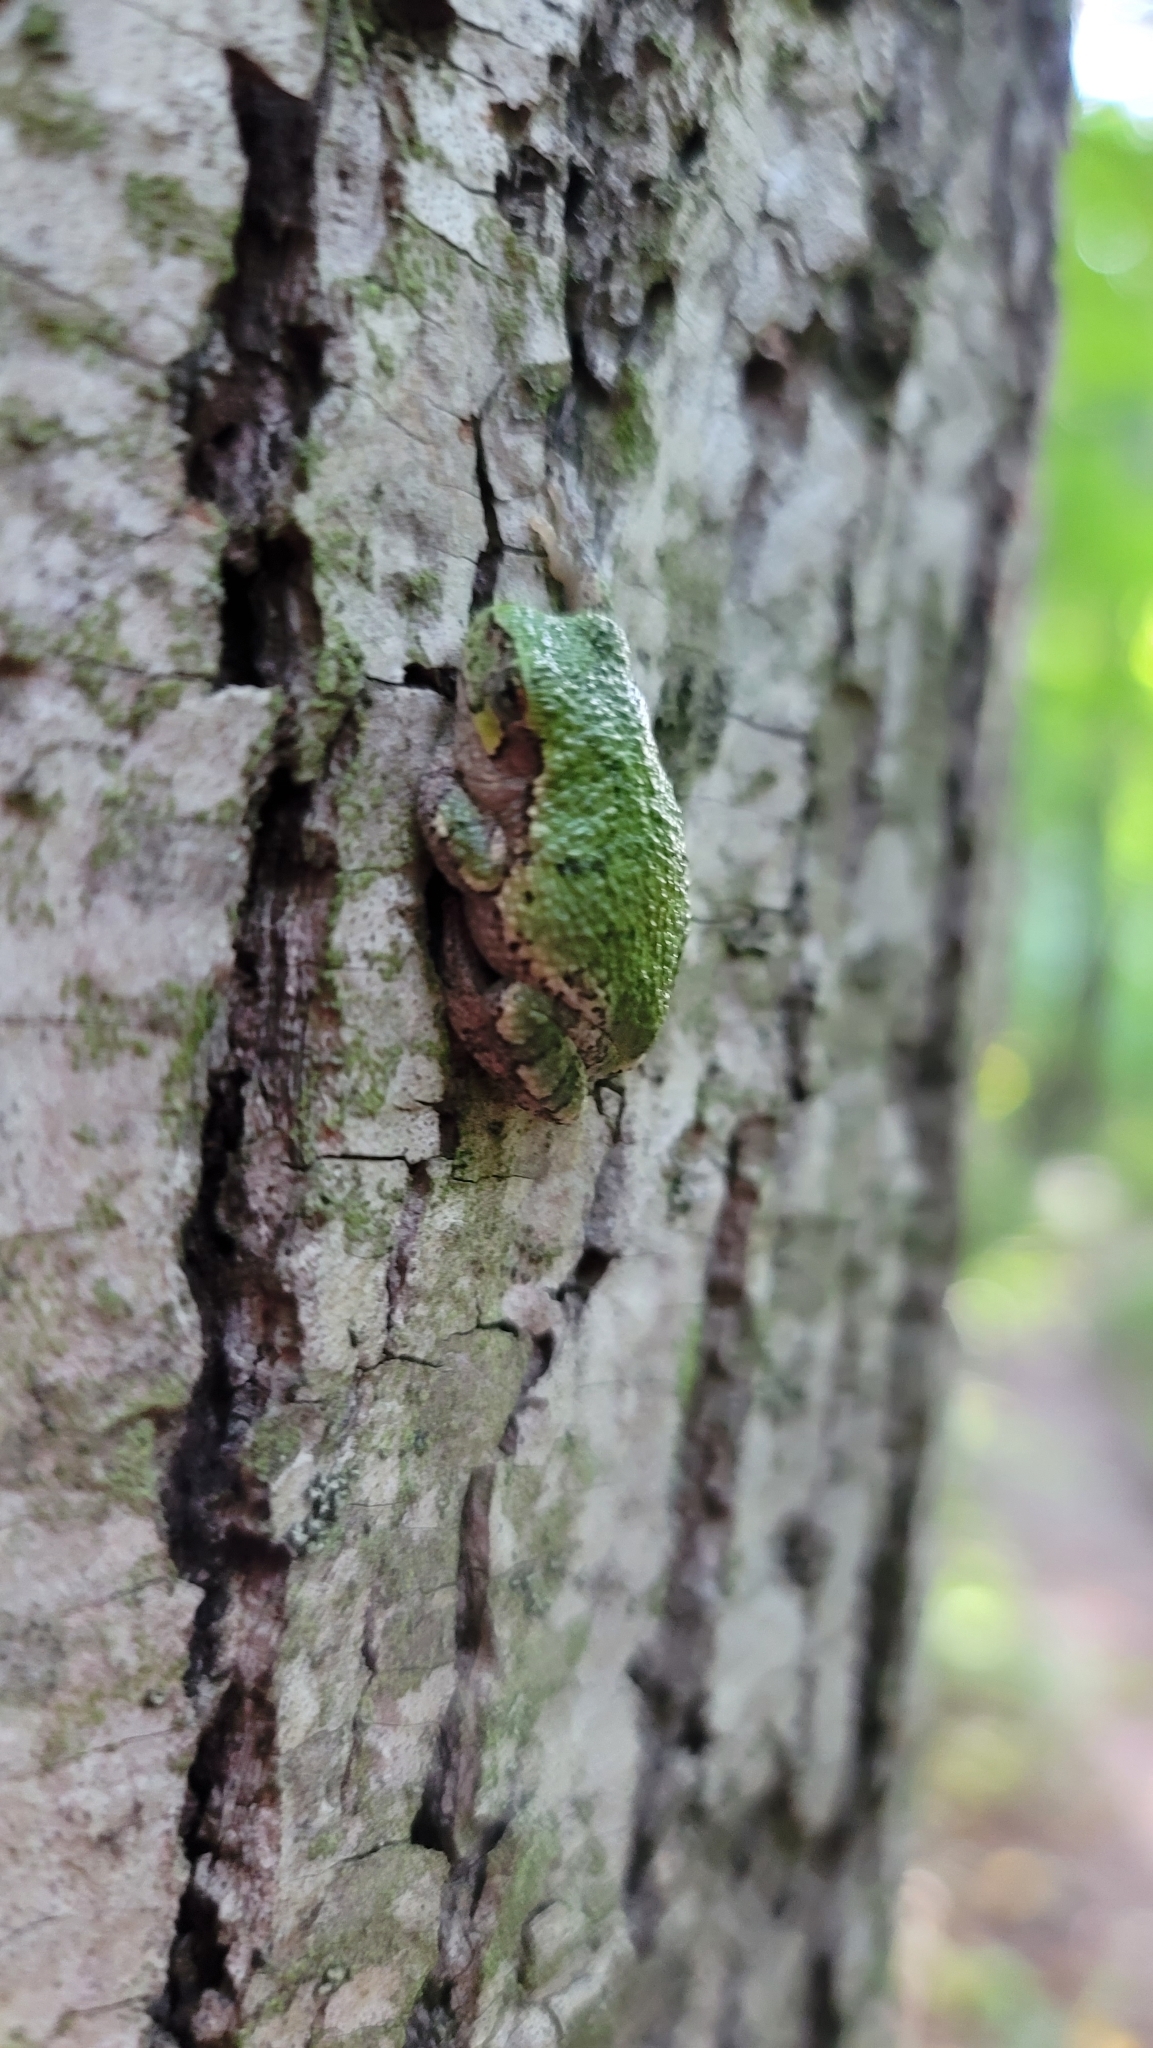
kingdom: Animalia
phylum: Chordata
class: Amphibia
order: Anura
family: Hylidae
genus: Dryophytes
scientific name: Dryophytes versicolor
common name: Gray treefrog
